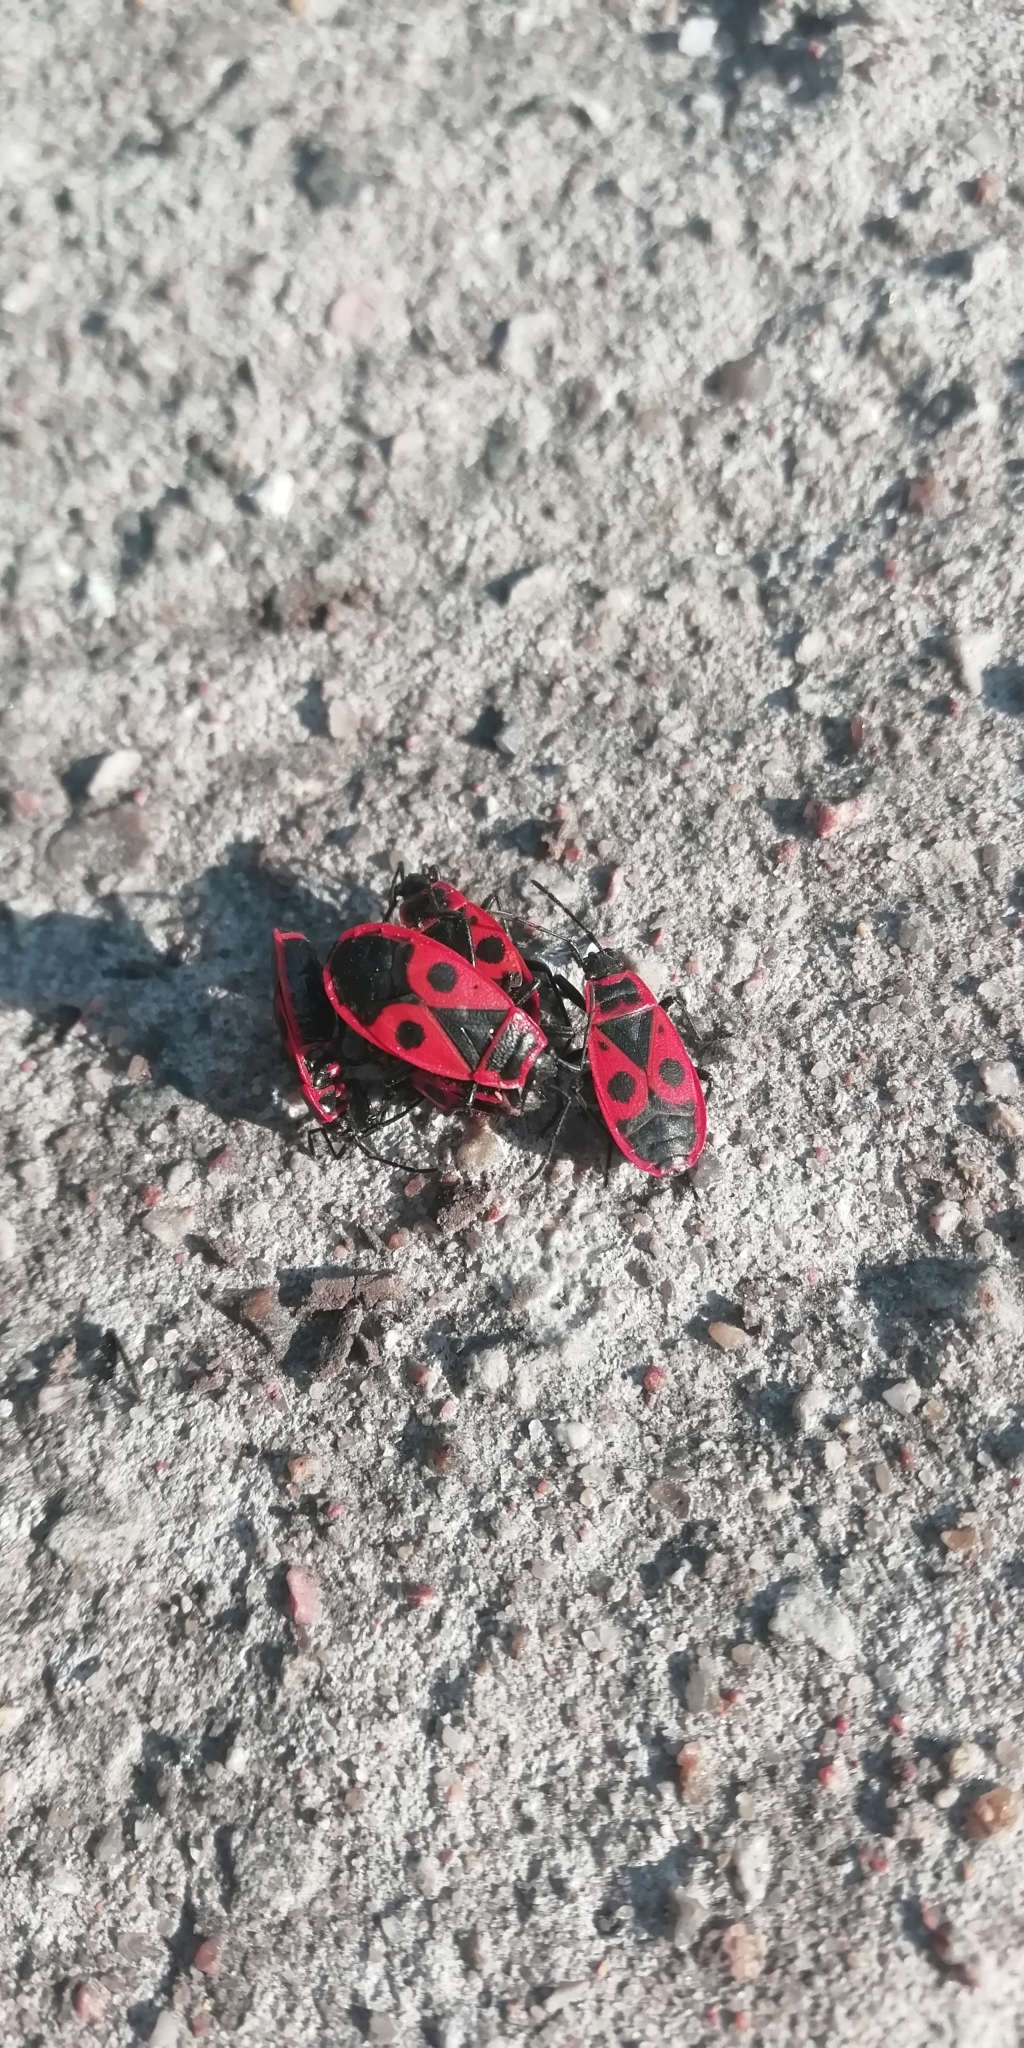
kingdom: Animalia
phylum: Arthropoda
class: Insecta
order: Hemiptera
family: Pyrrhocoridae
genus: Pyrrhocoris
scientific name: Pyrrhocoris apterus
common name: Firebug
